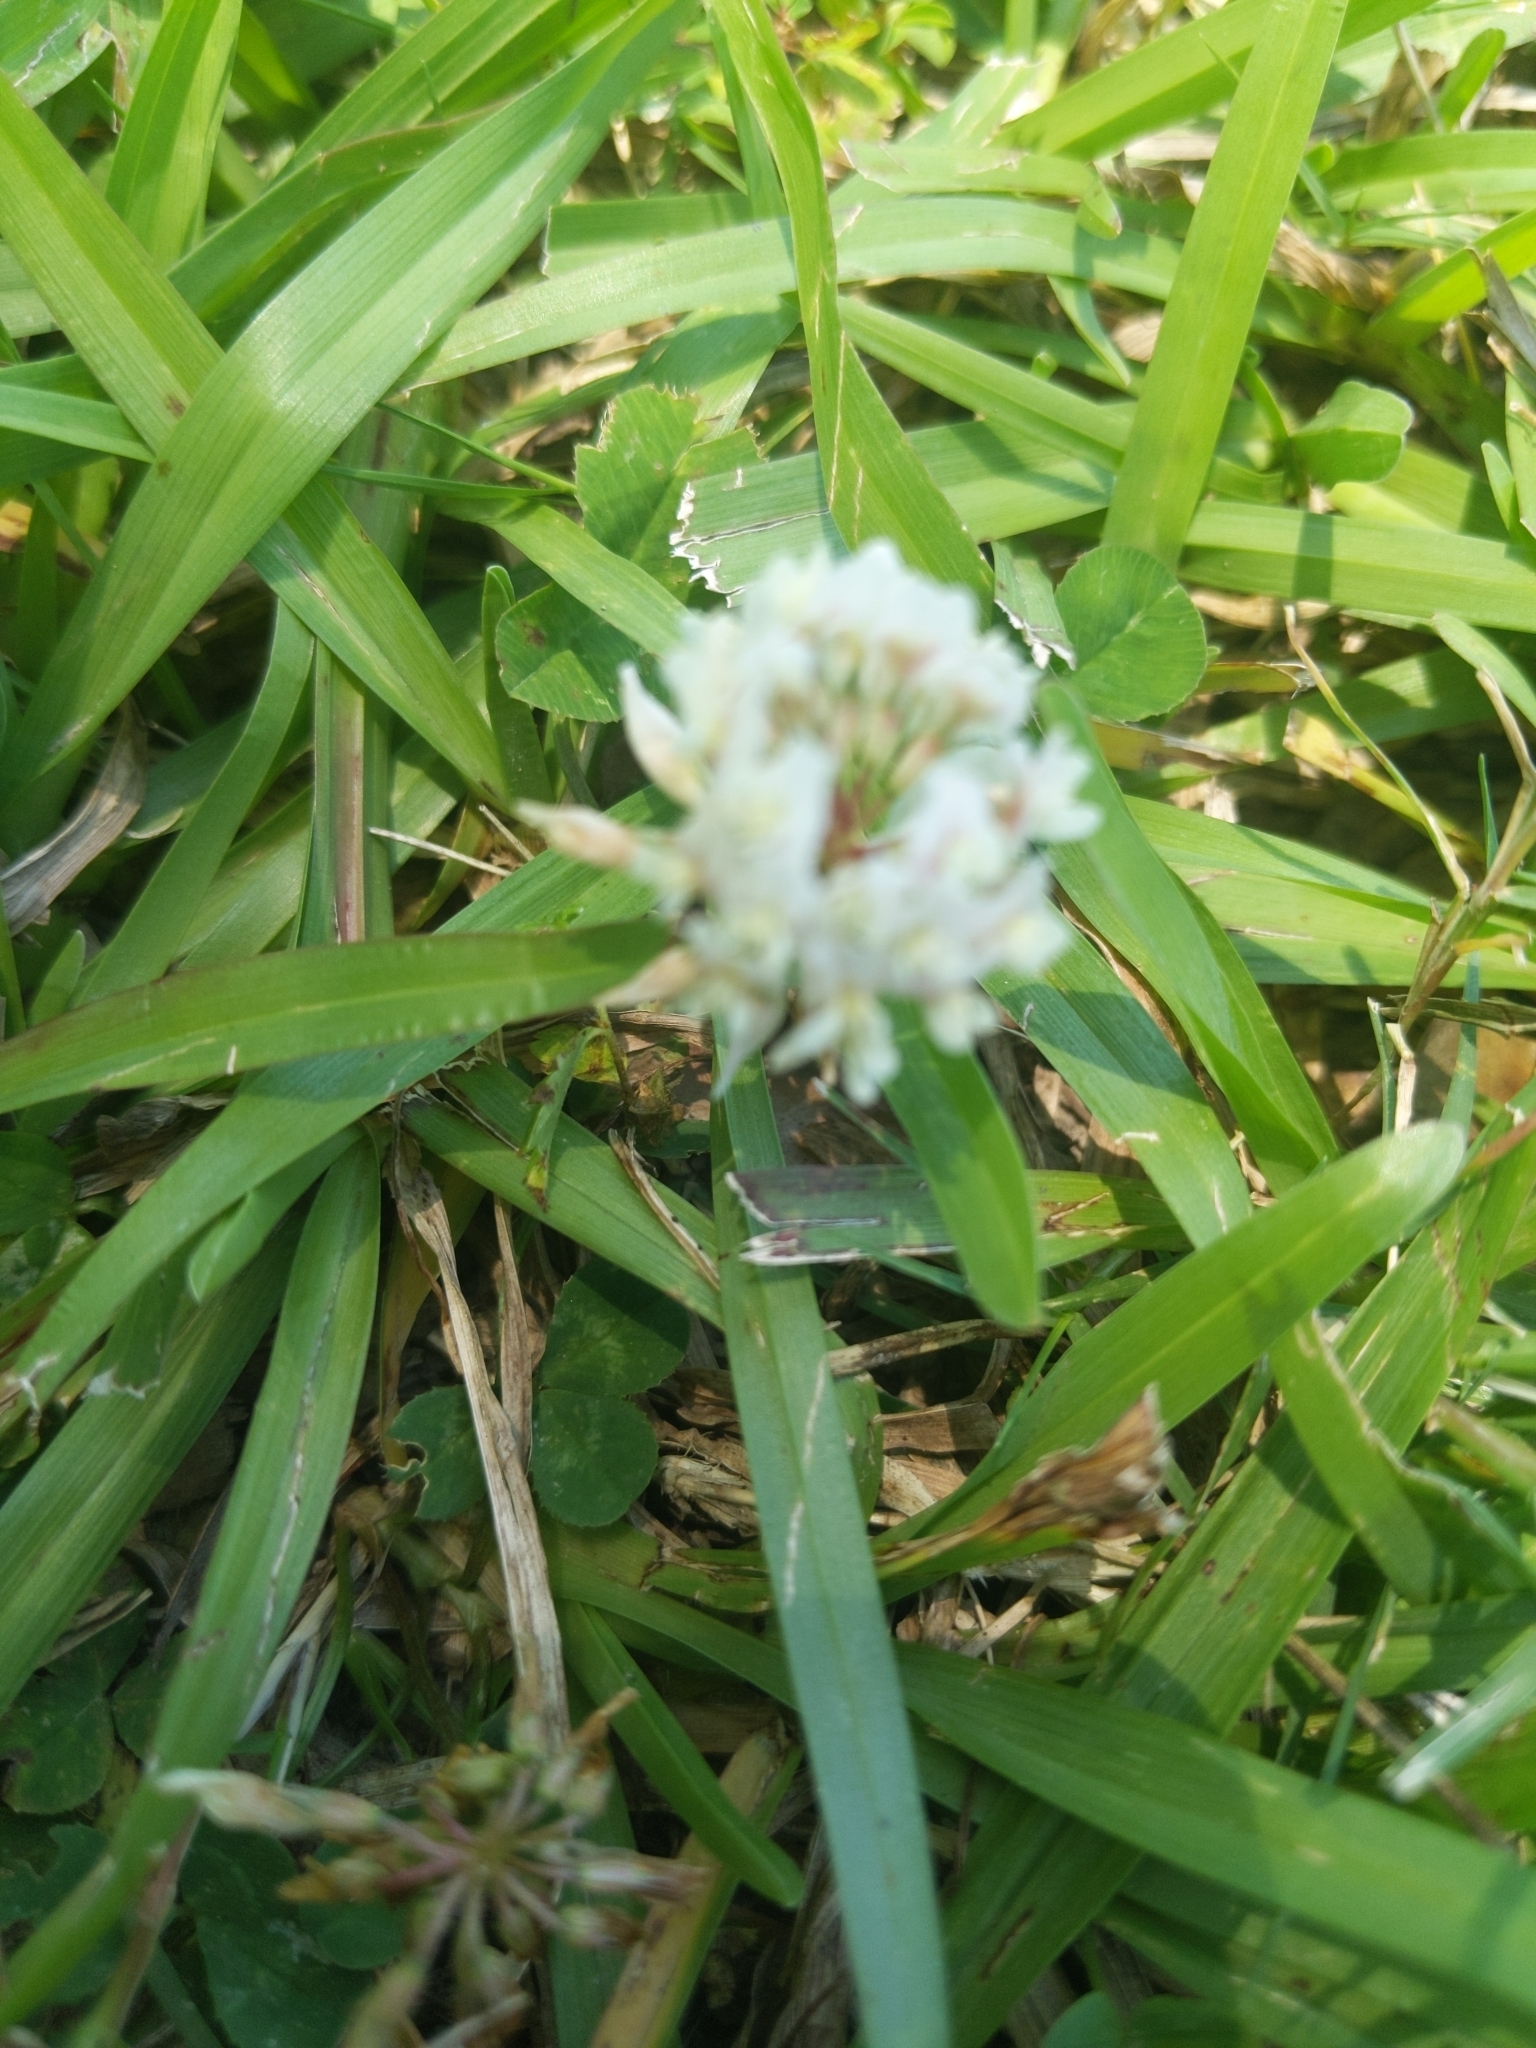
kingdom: Plantae
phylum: Tracheophyta
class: Magnoliopsida
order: Fabales
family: Fabaceae
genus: Trifolium
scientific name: Trifolium repens
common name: White clover
